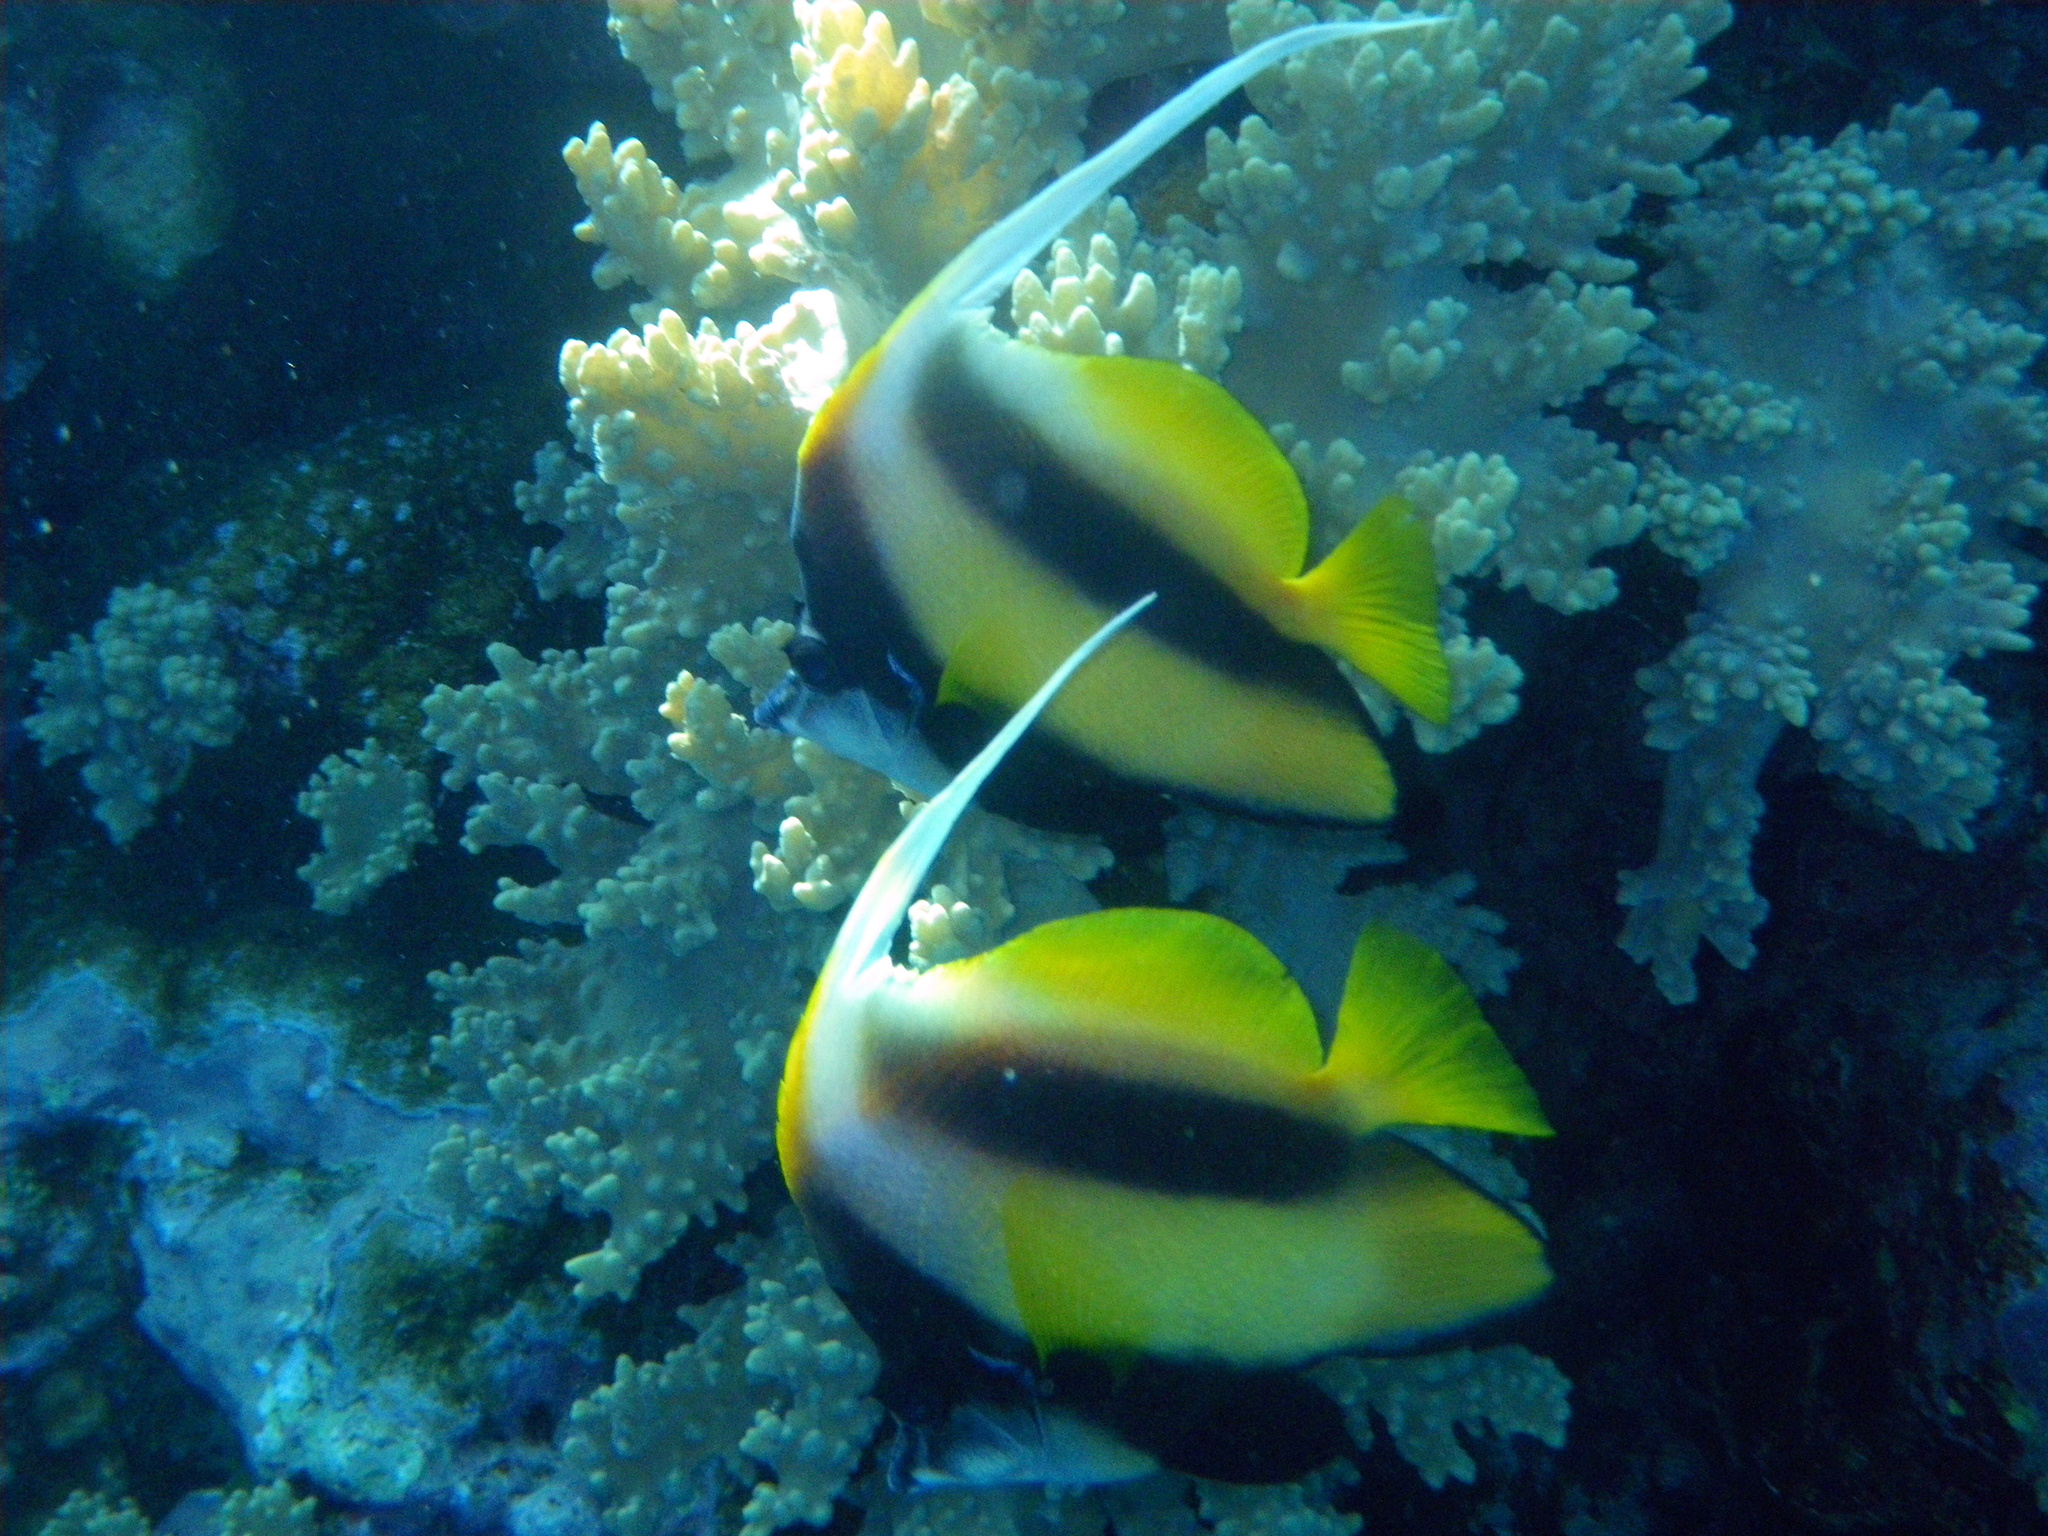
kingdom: Animalia
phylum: Chordata
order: Perciformes
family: Chaetodontidae
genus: Heniochus
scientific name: Heniochus intermedius
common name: Red sea bannerfish
